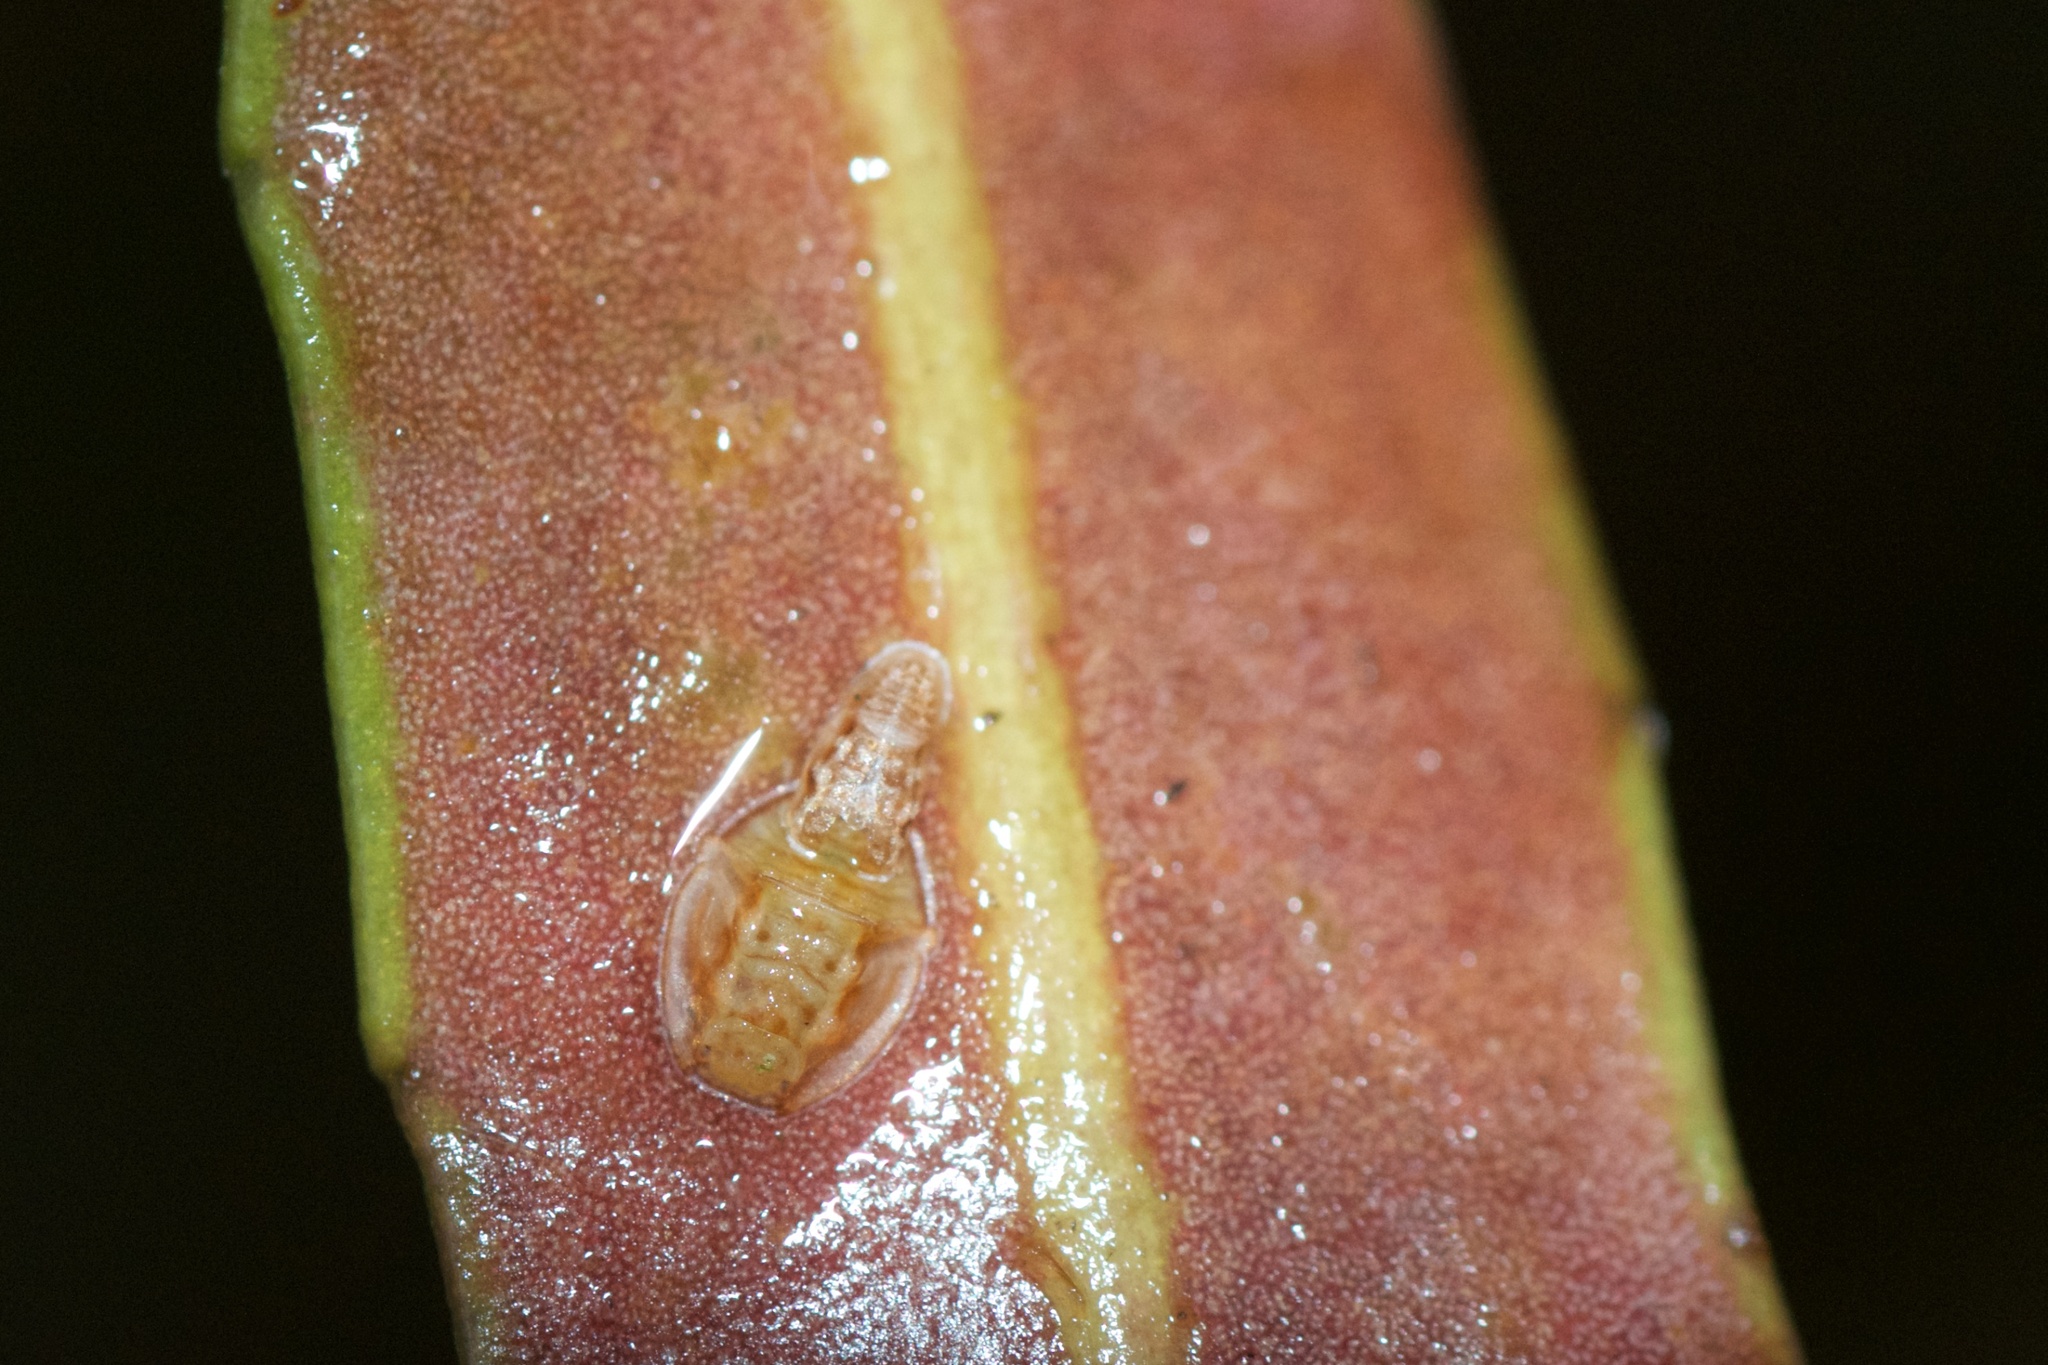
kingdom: Animalia
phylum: Arthropoda
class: Insecta
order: Hemiptera
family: Triozidae
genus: Trioza
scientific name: Trioza panacis
